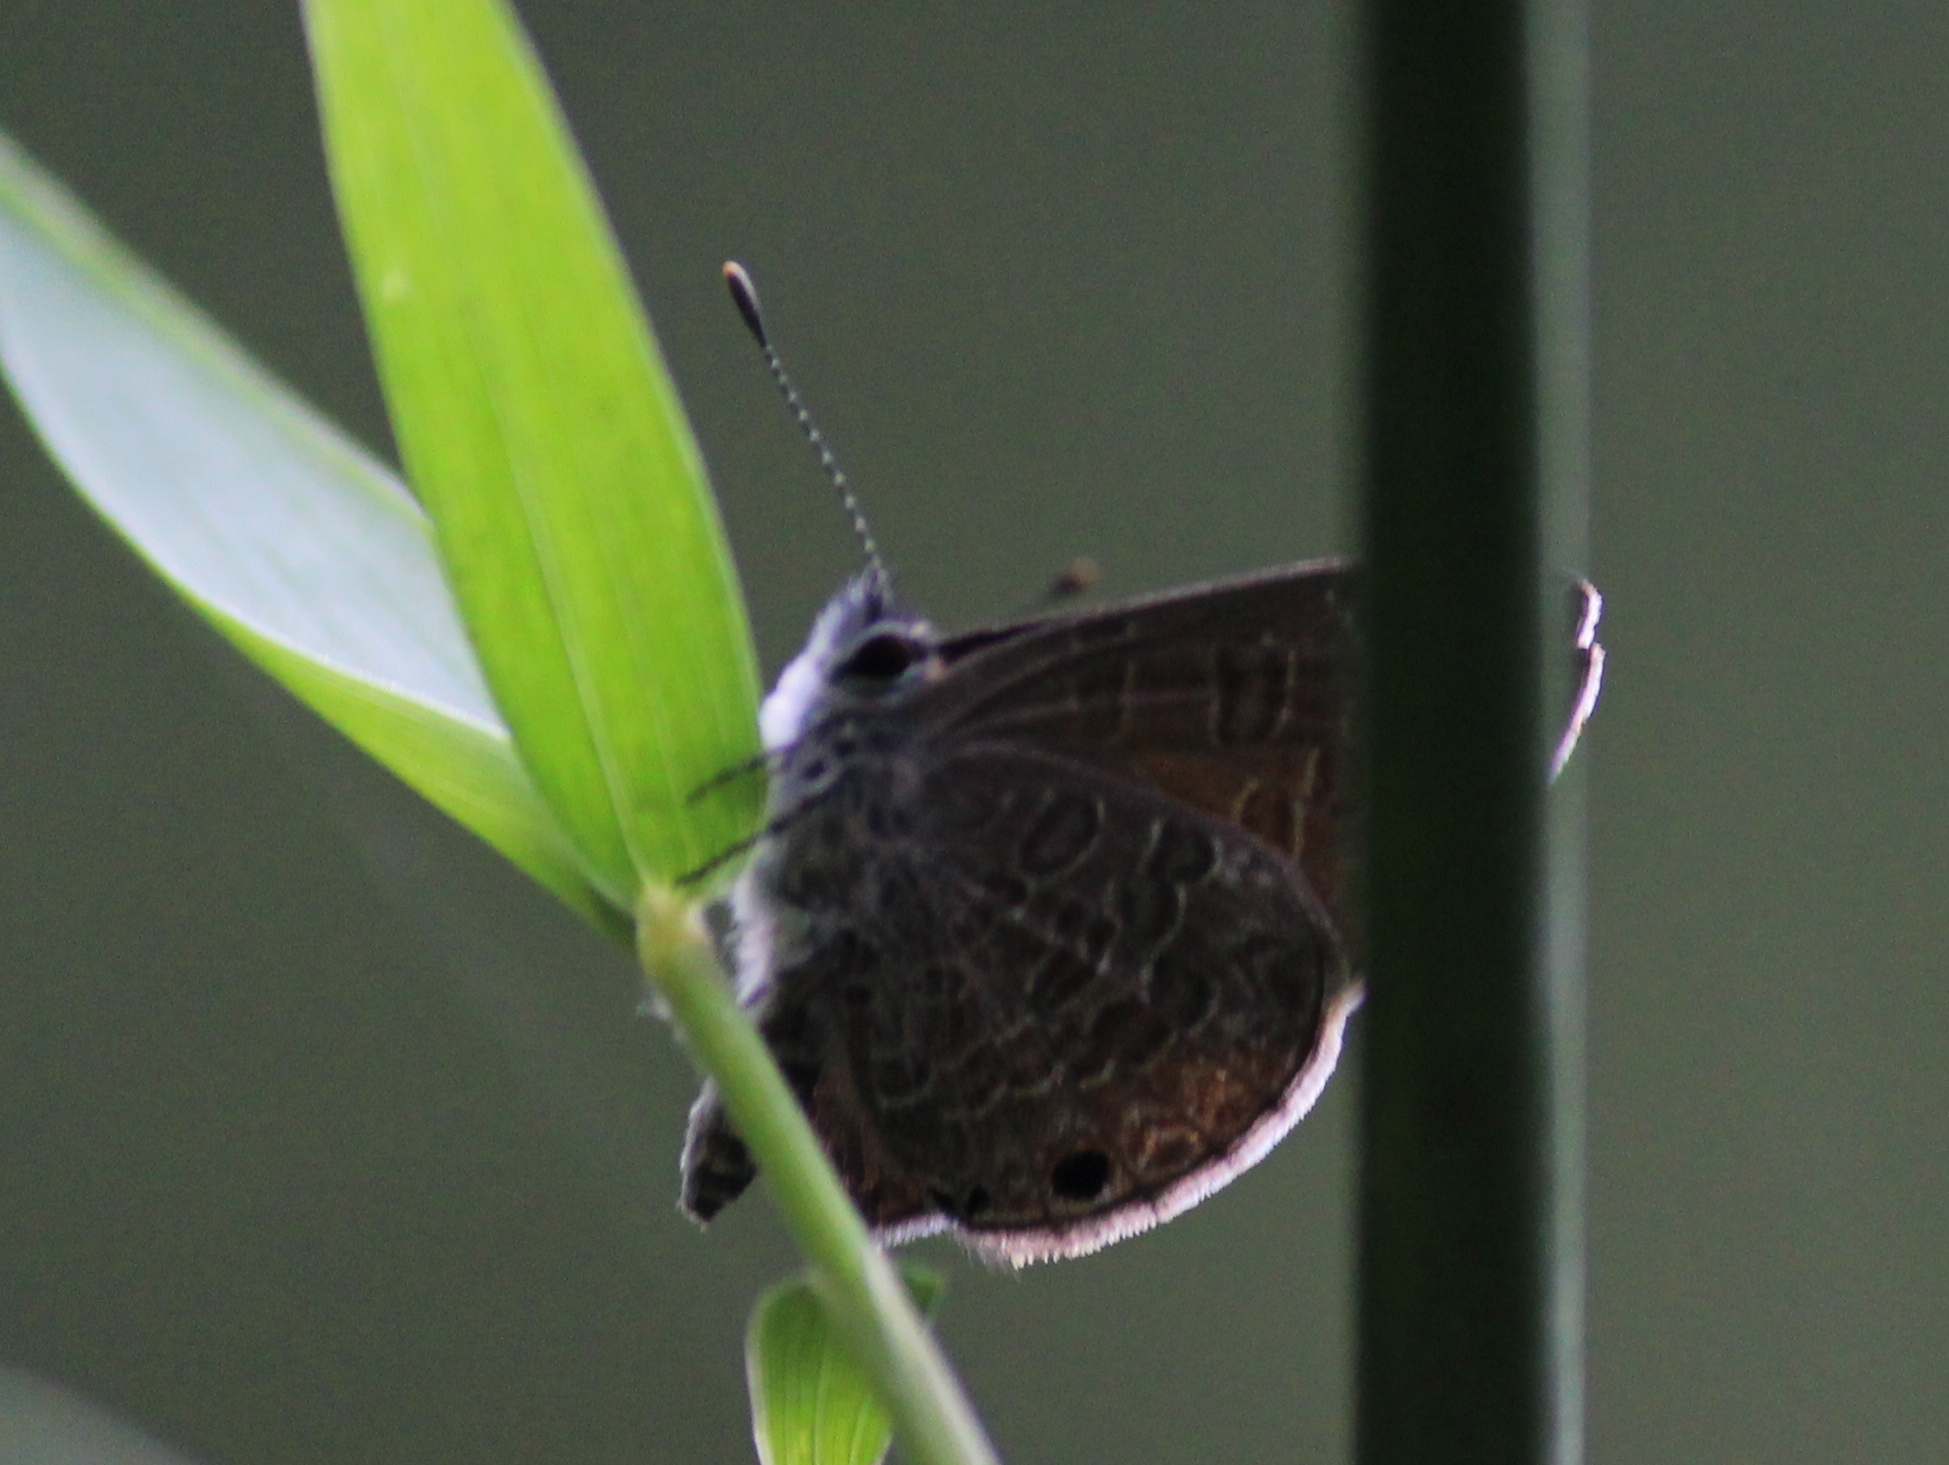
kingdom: Animalia
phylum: Arthropoda
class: Insecta
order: Lepidoptera
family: Lycaenidae
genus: Prosotas
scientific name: Prosotas noreia
